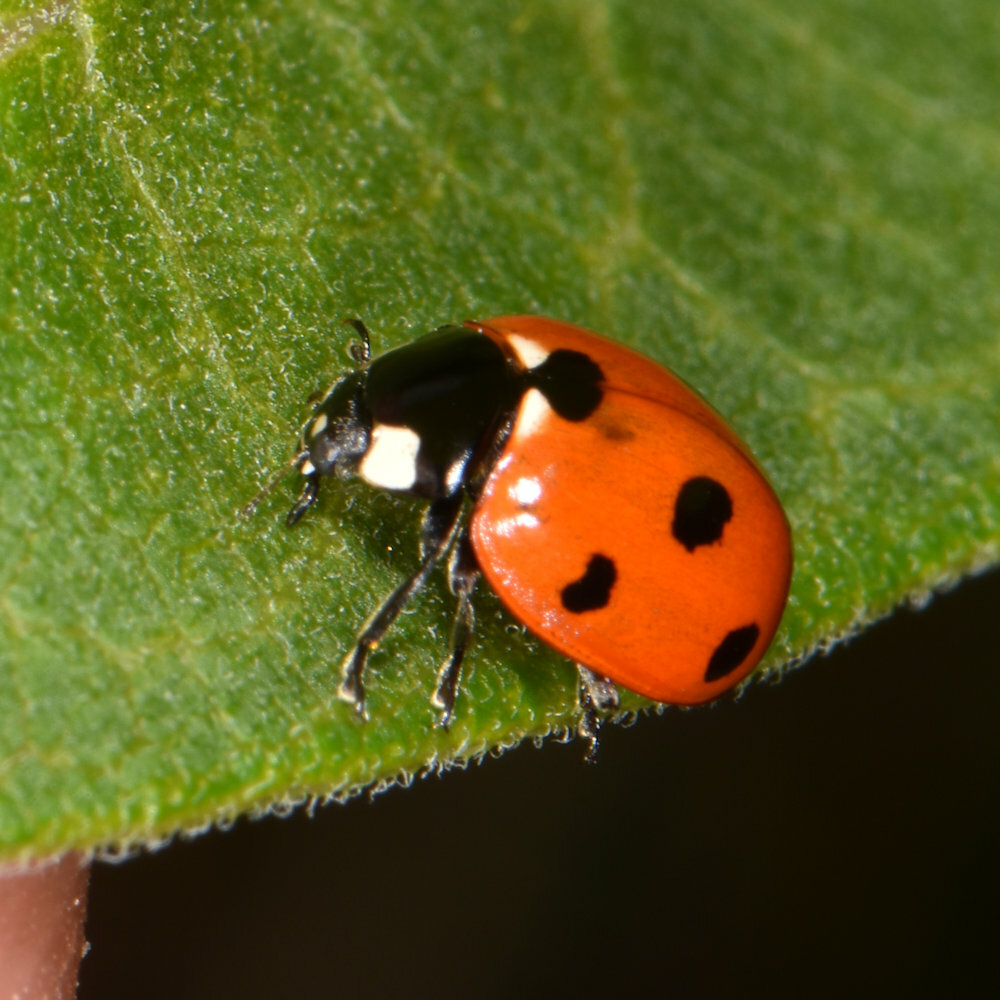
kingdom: Animalia
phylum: Arthropoda
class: Insecta
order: Coleoptera
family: Coccinellidae
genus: Coccinella
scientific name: Coccinella septempunctata
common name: Sevenspotted lady beetle
